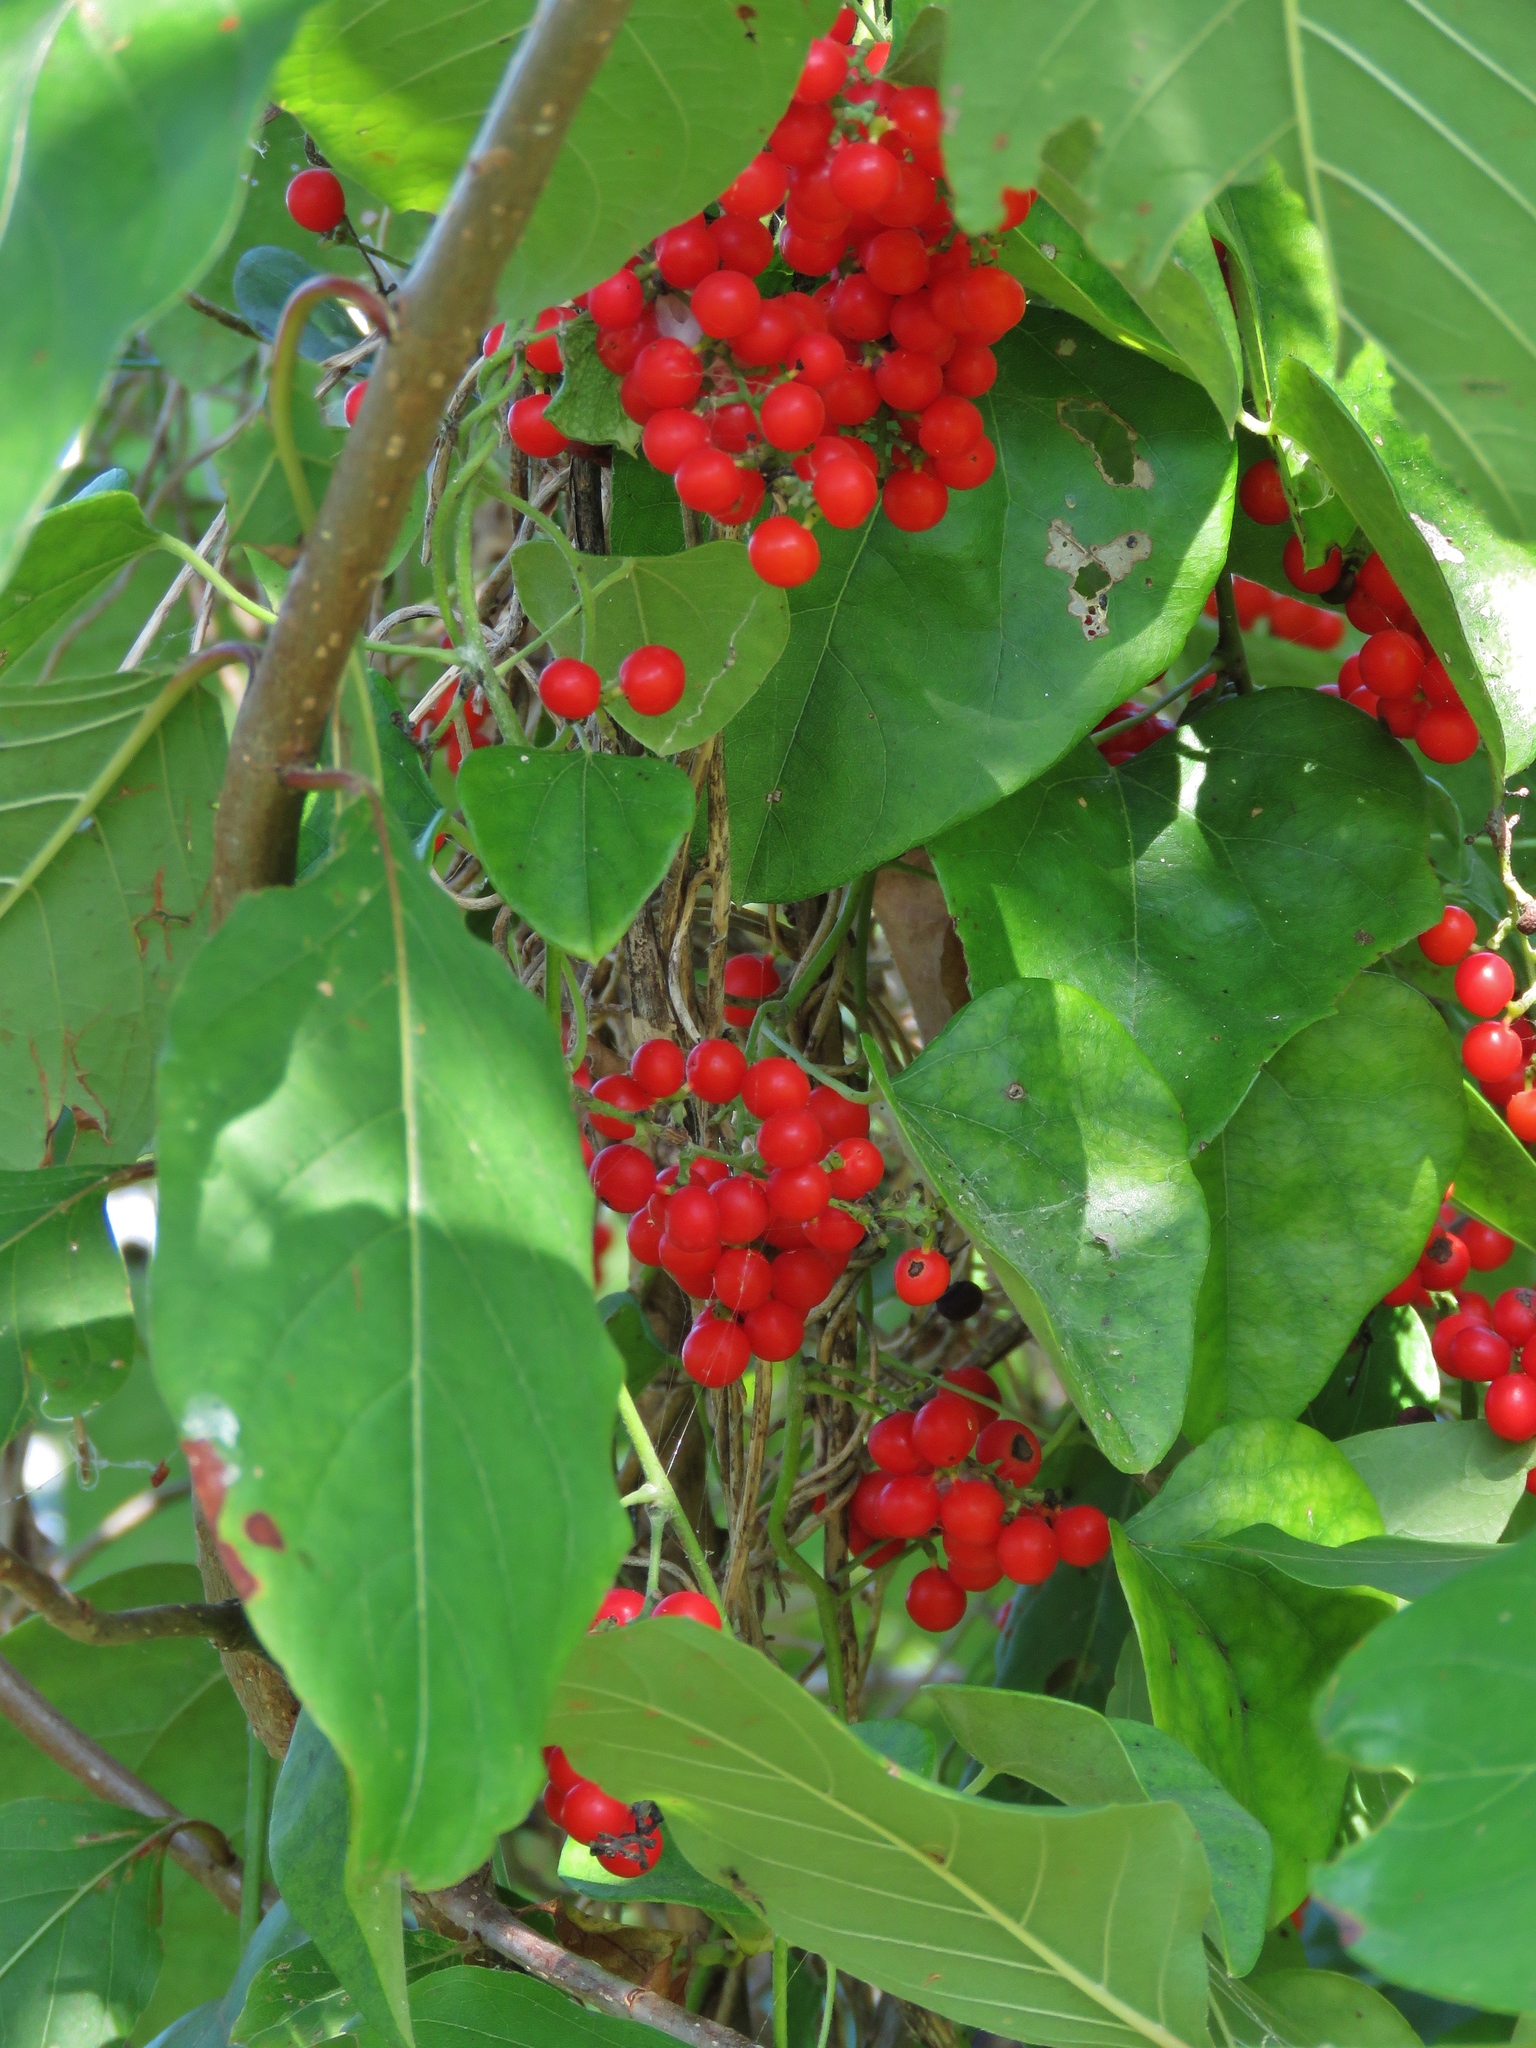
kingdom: Plantae
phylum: Tracheophyta
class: Magnoliopsida
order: Ranunculales
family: Menispermaceae
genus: Cocculus
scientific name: Cocculus carolinus
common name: Carolina moonseed
